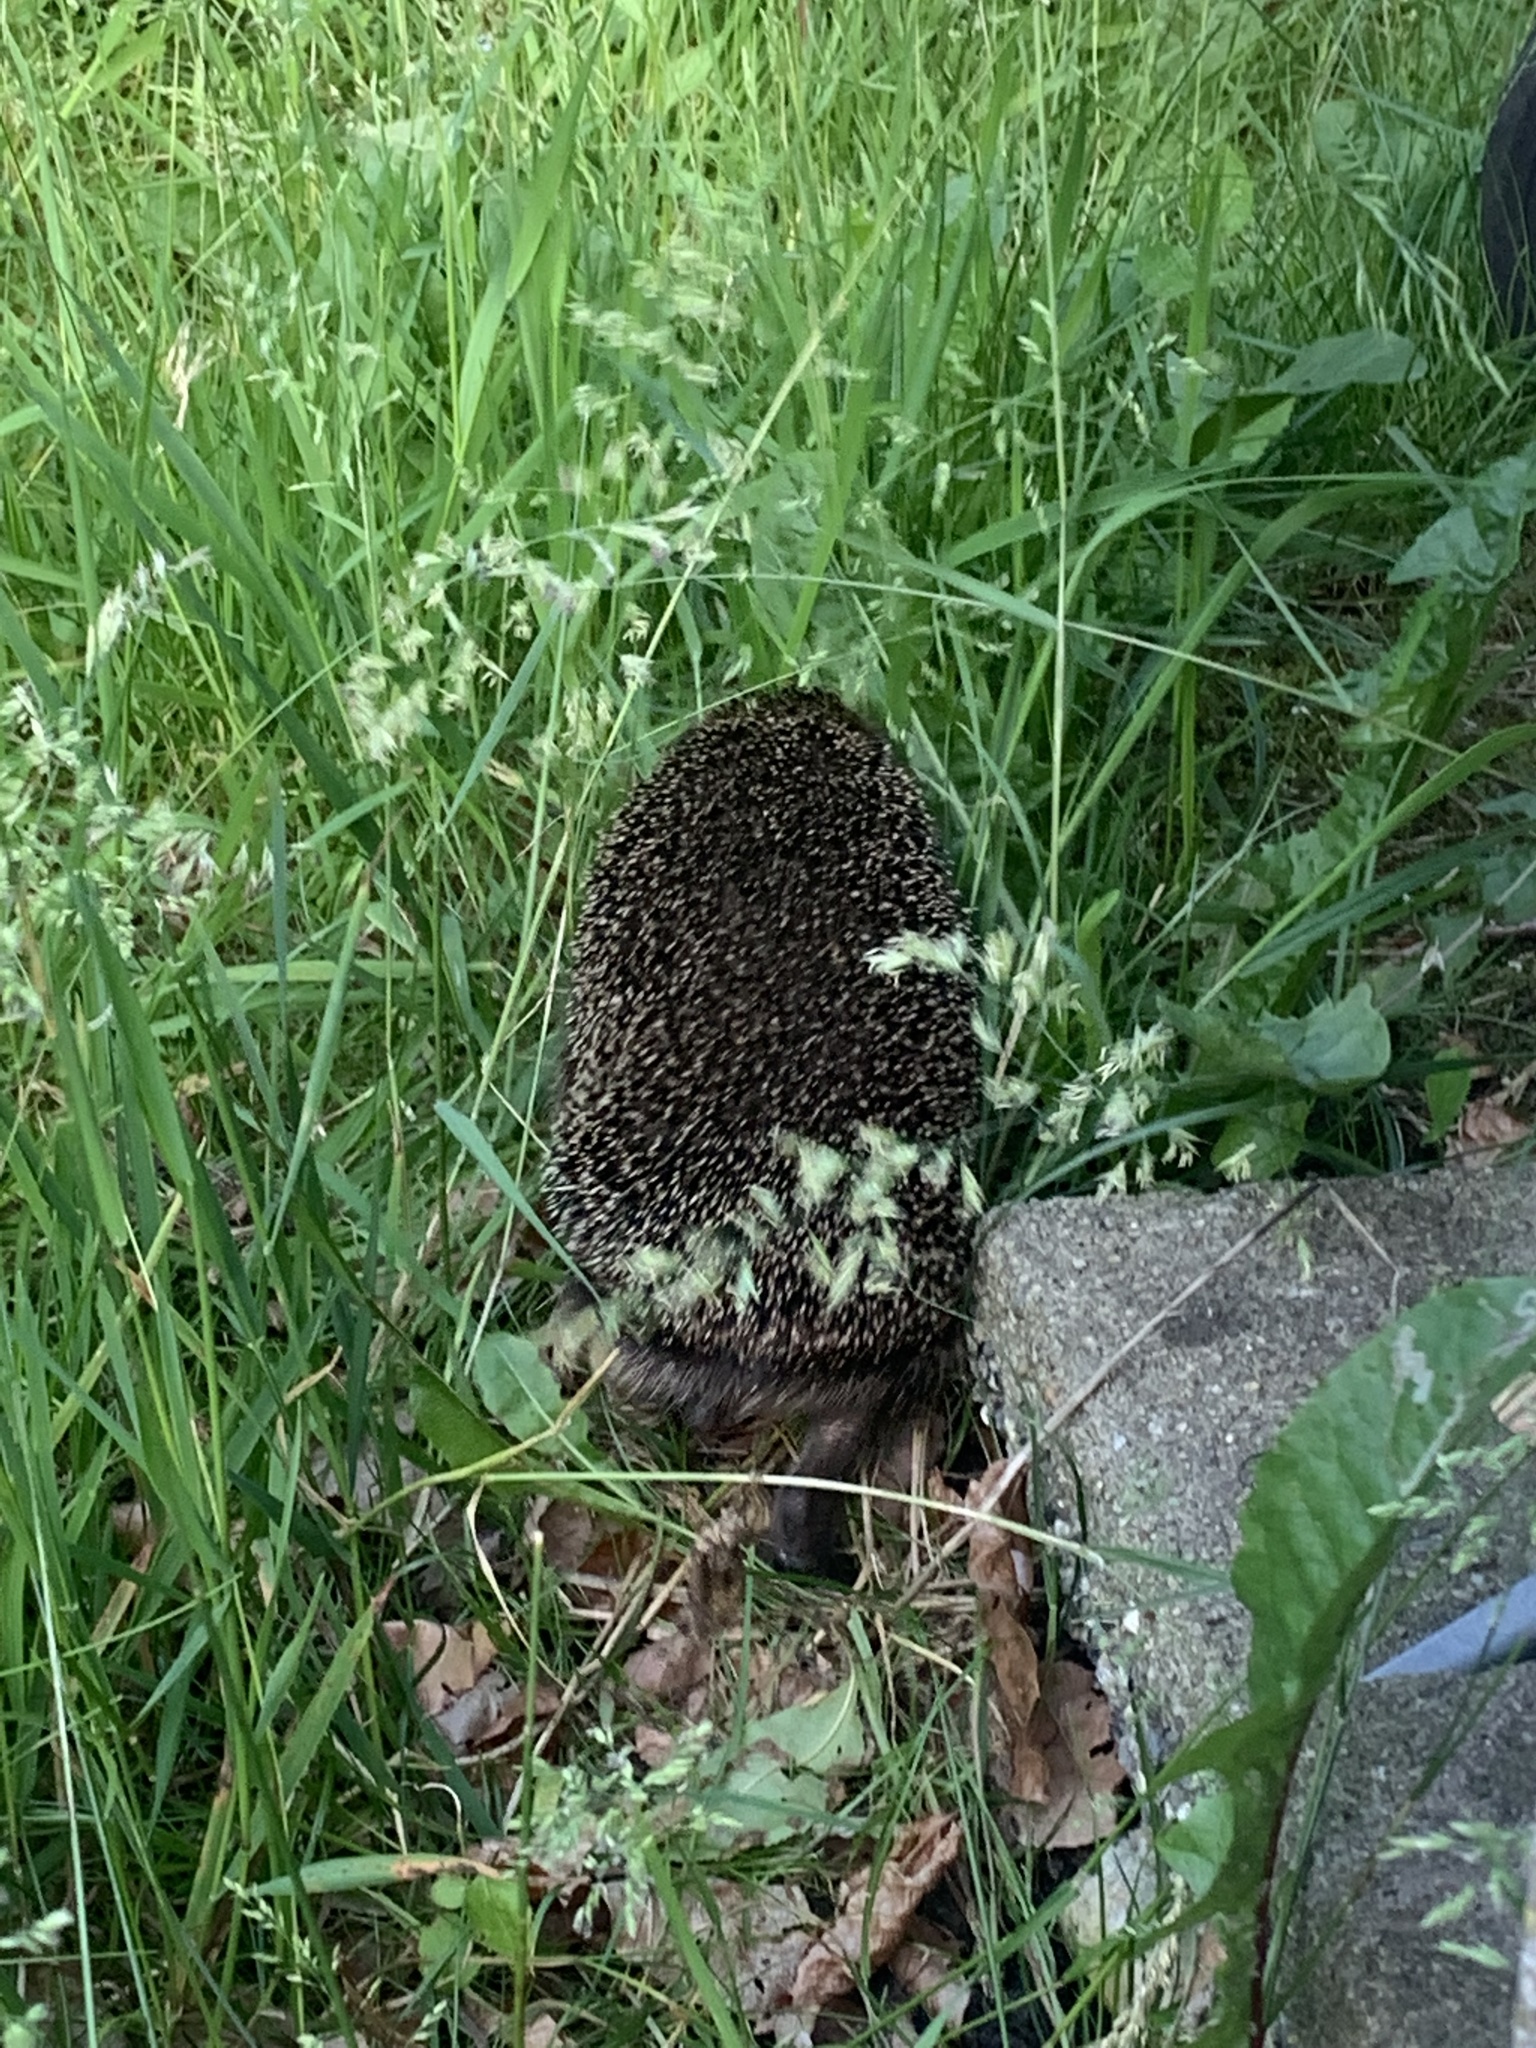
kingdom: Animalia
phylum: Chordata
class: Mammalia
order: Erinaceomorpha
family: Erinaceidae
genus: Erinaceus
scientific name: Erinaceus europaeus
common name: West european hedgehog
